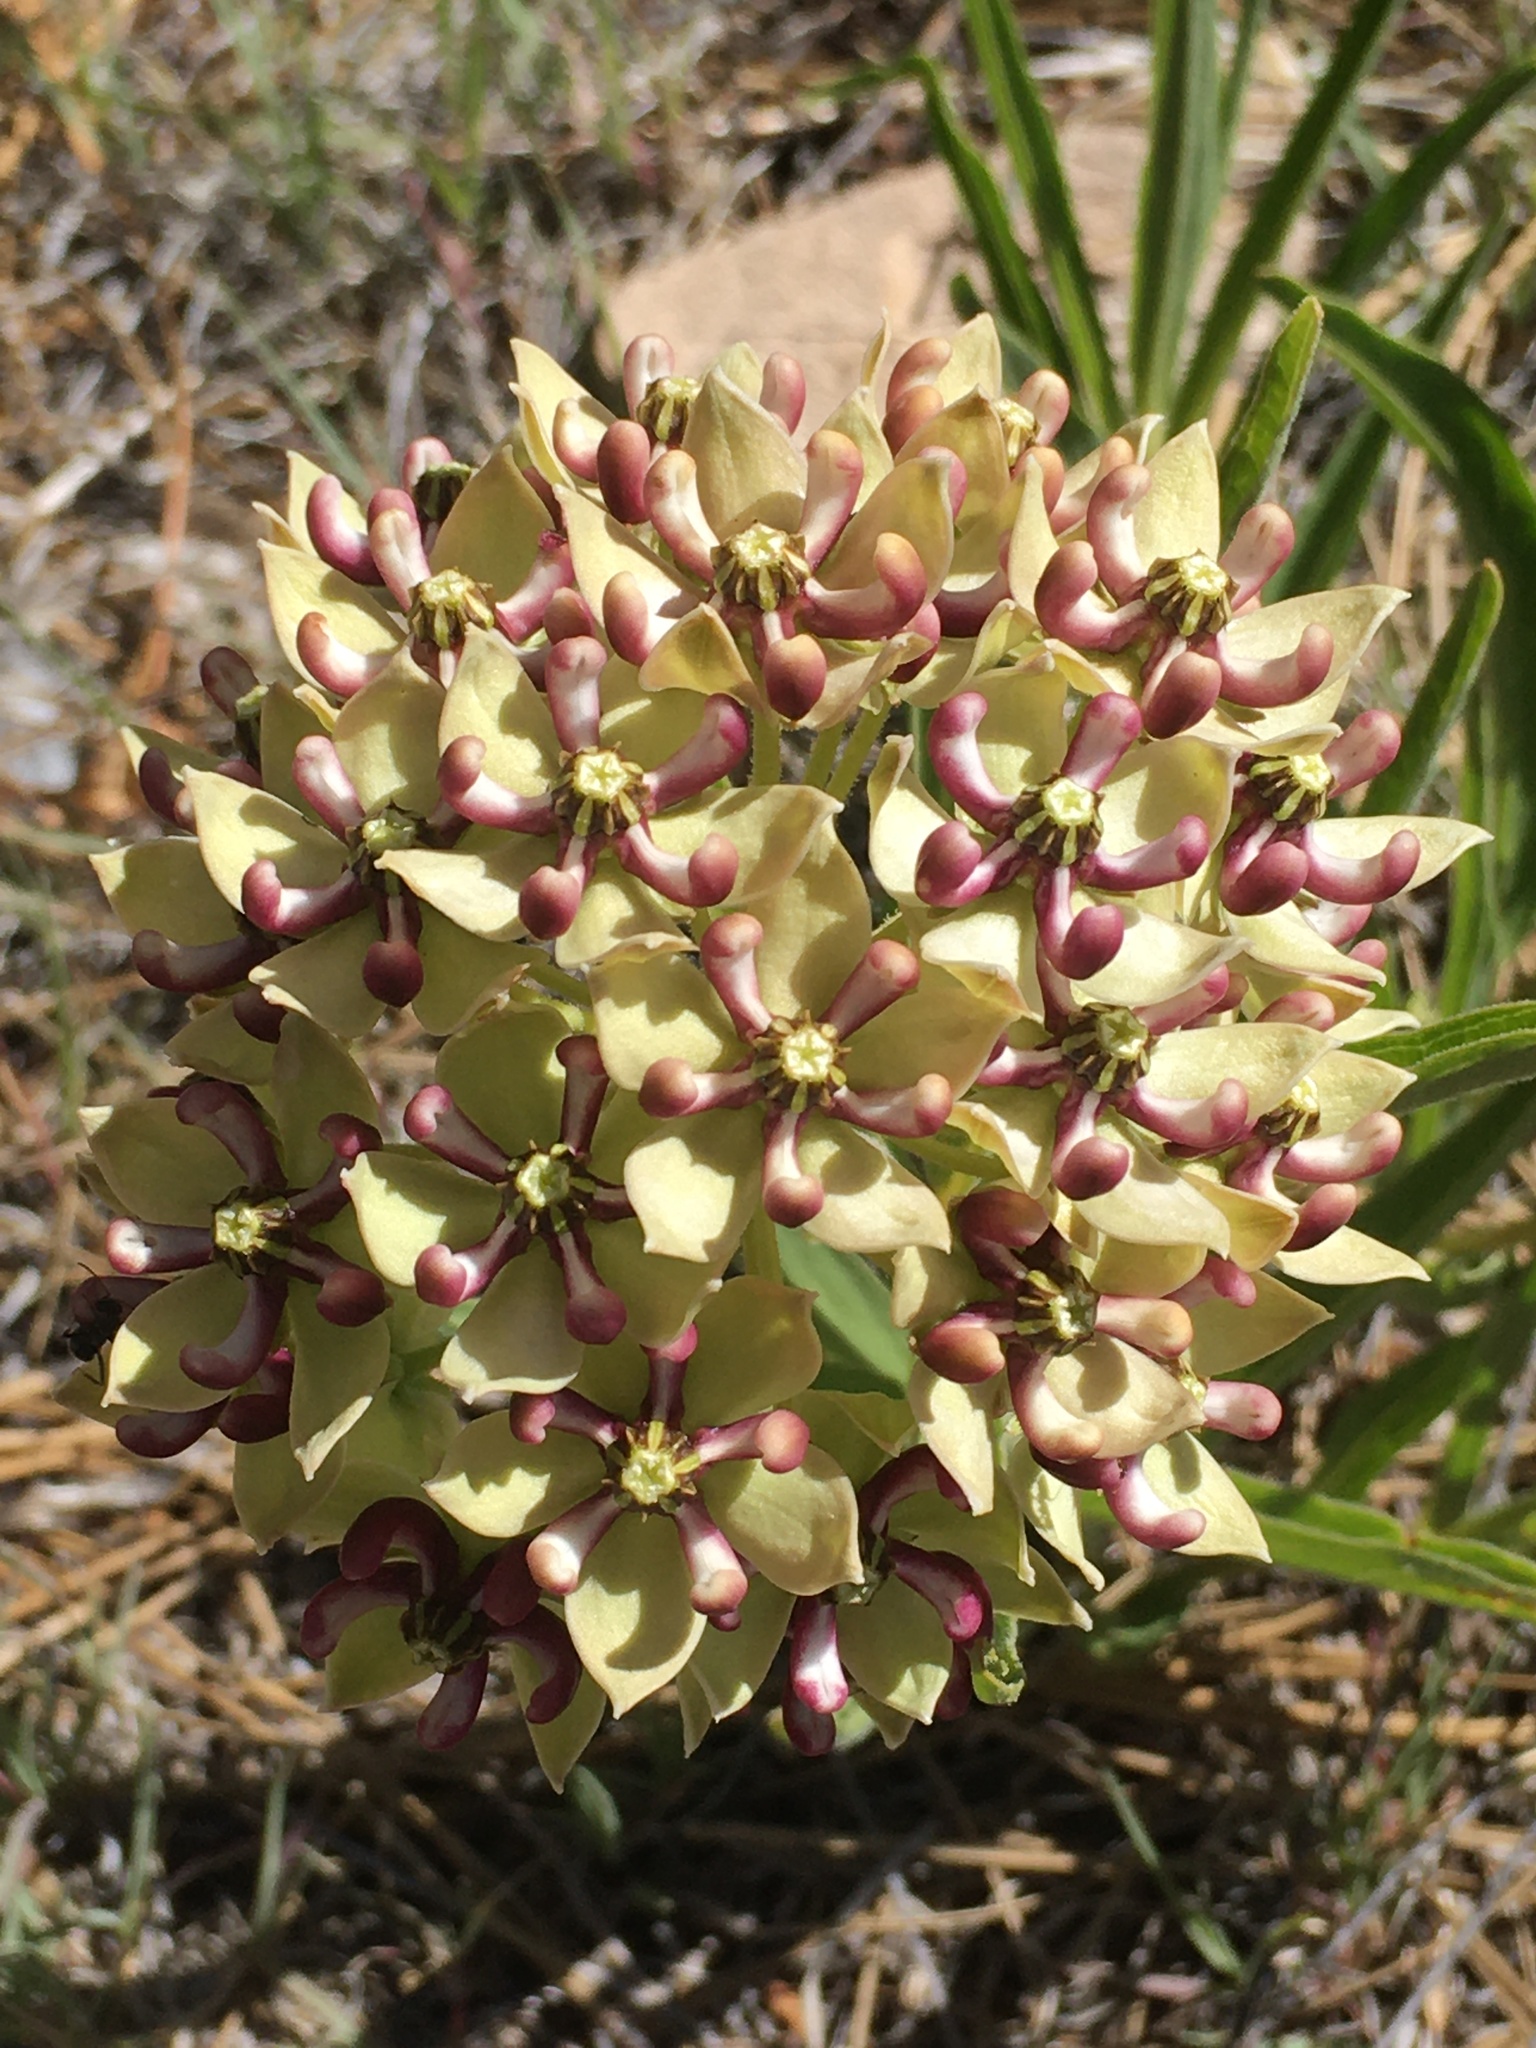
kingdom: Plantae
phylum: Tracheophyta
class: Magnoliopsida
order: Gentianales
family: Apocynaceae
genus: Asclepias
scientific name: Asclepias asperula
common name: Antelope horns
